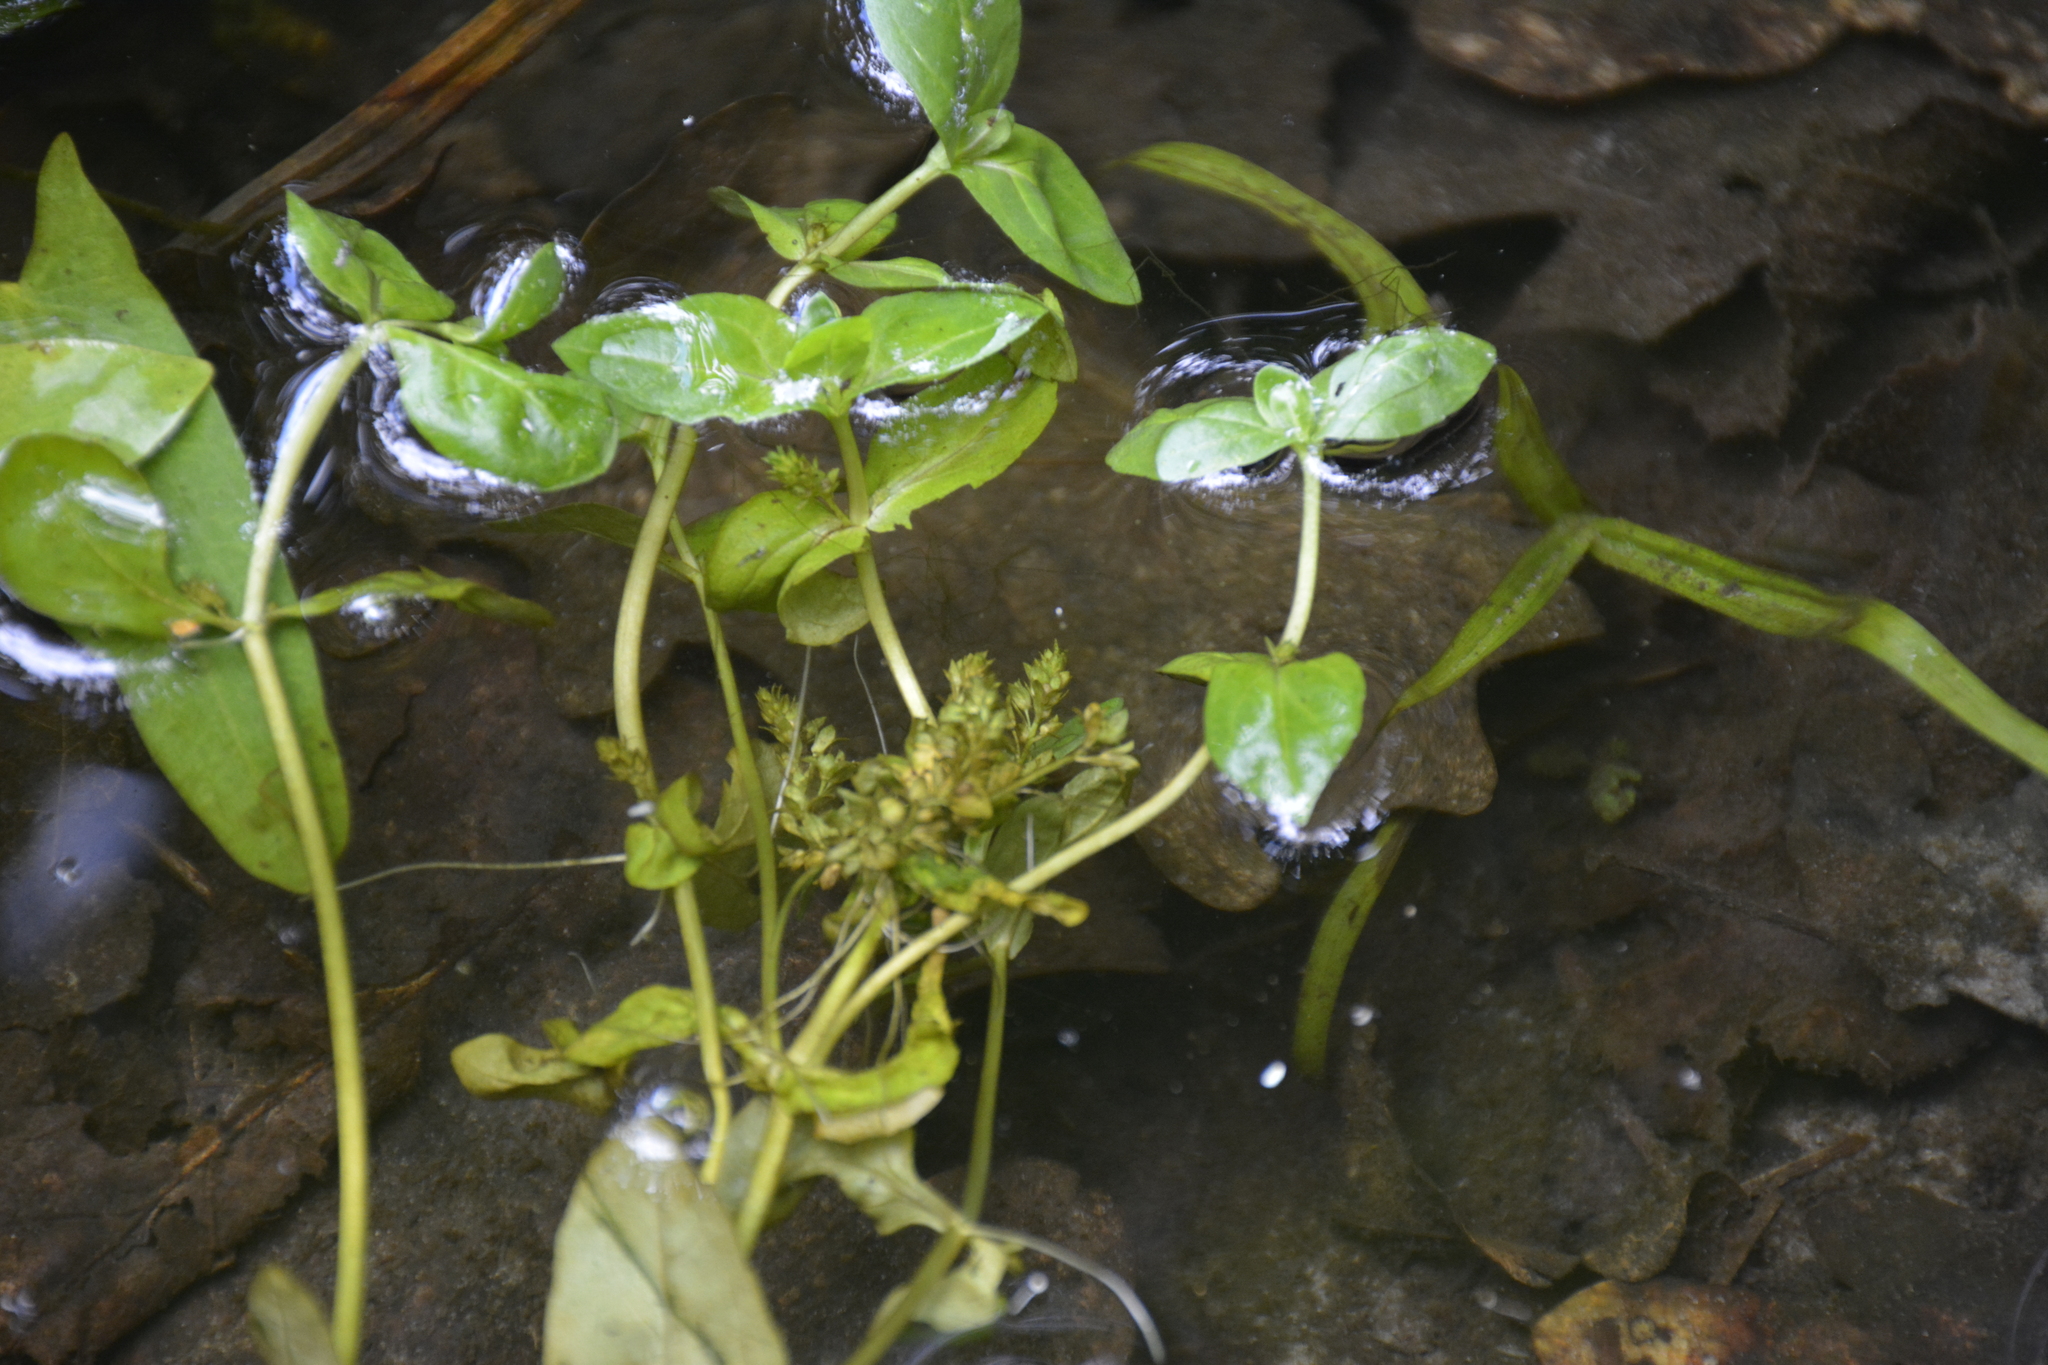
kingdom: Plantae
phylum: Tracheophyta
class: Magnoliopsida
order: Lamiales
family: Plantaginaceae
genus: Veronica
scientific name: Veronica beccabunga
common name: Brooklime
